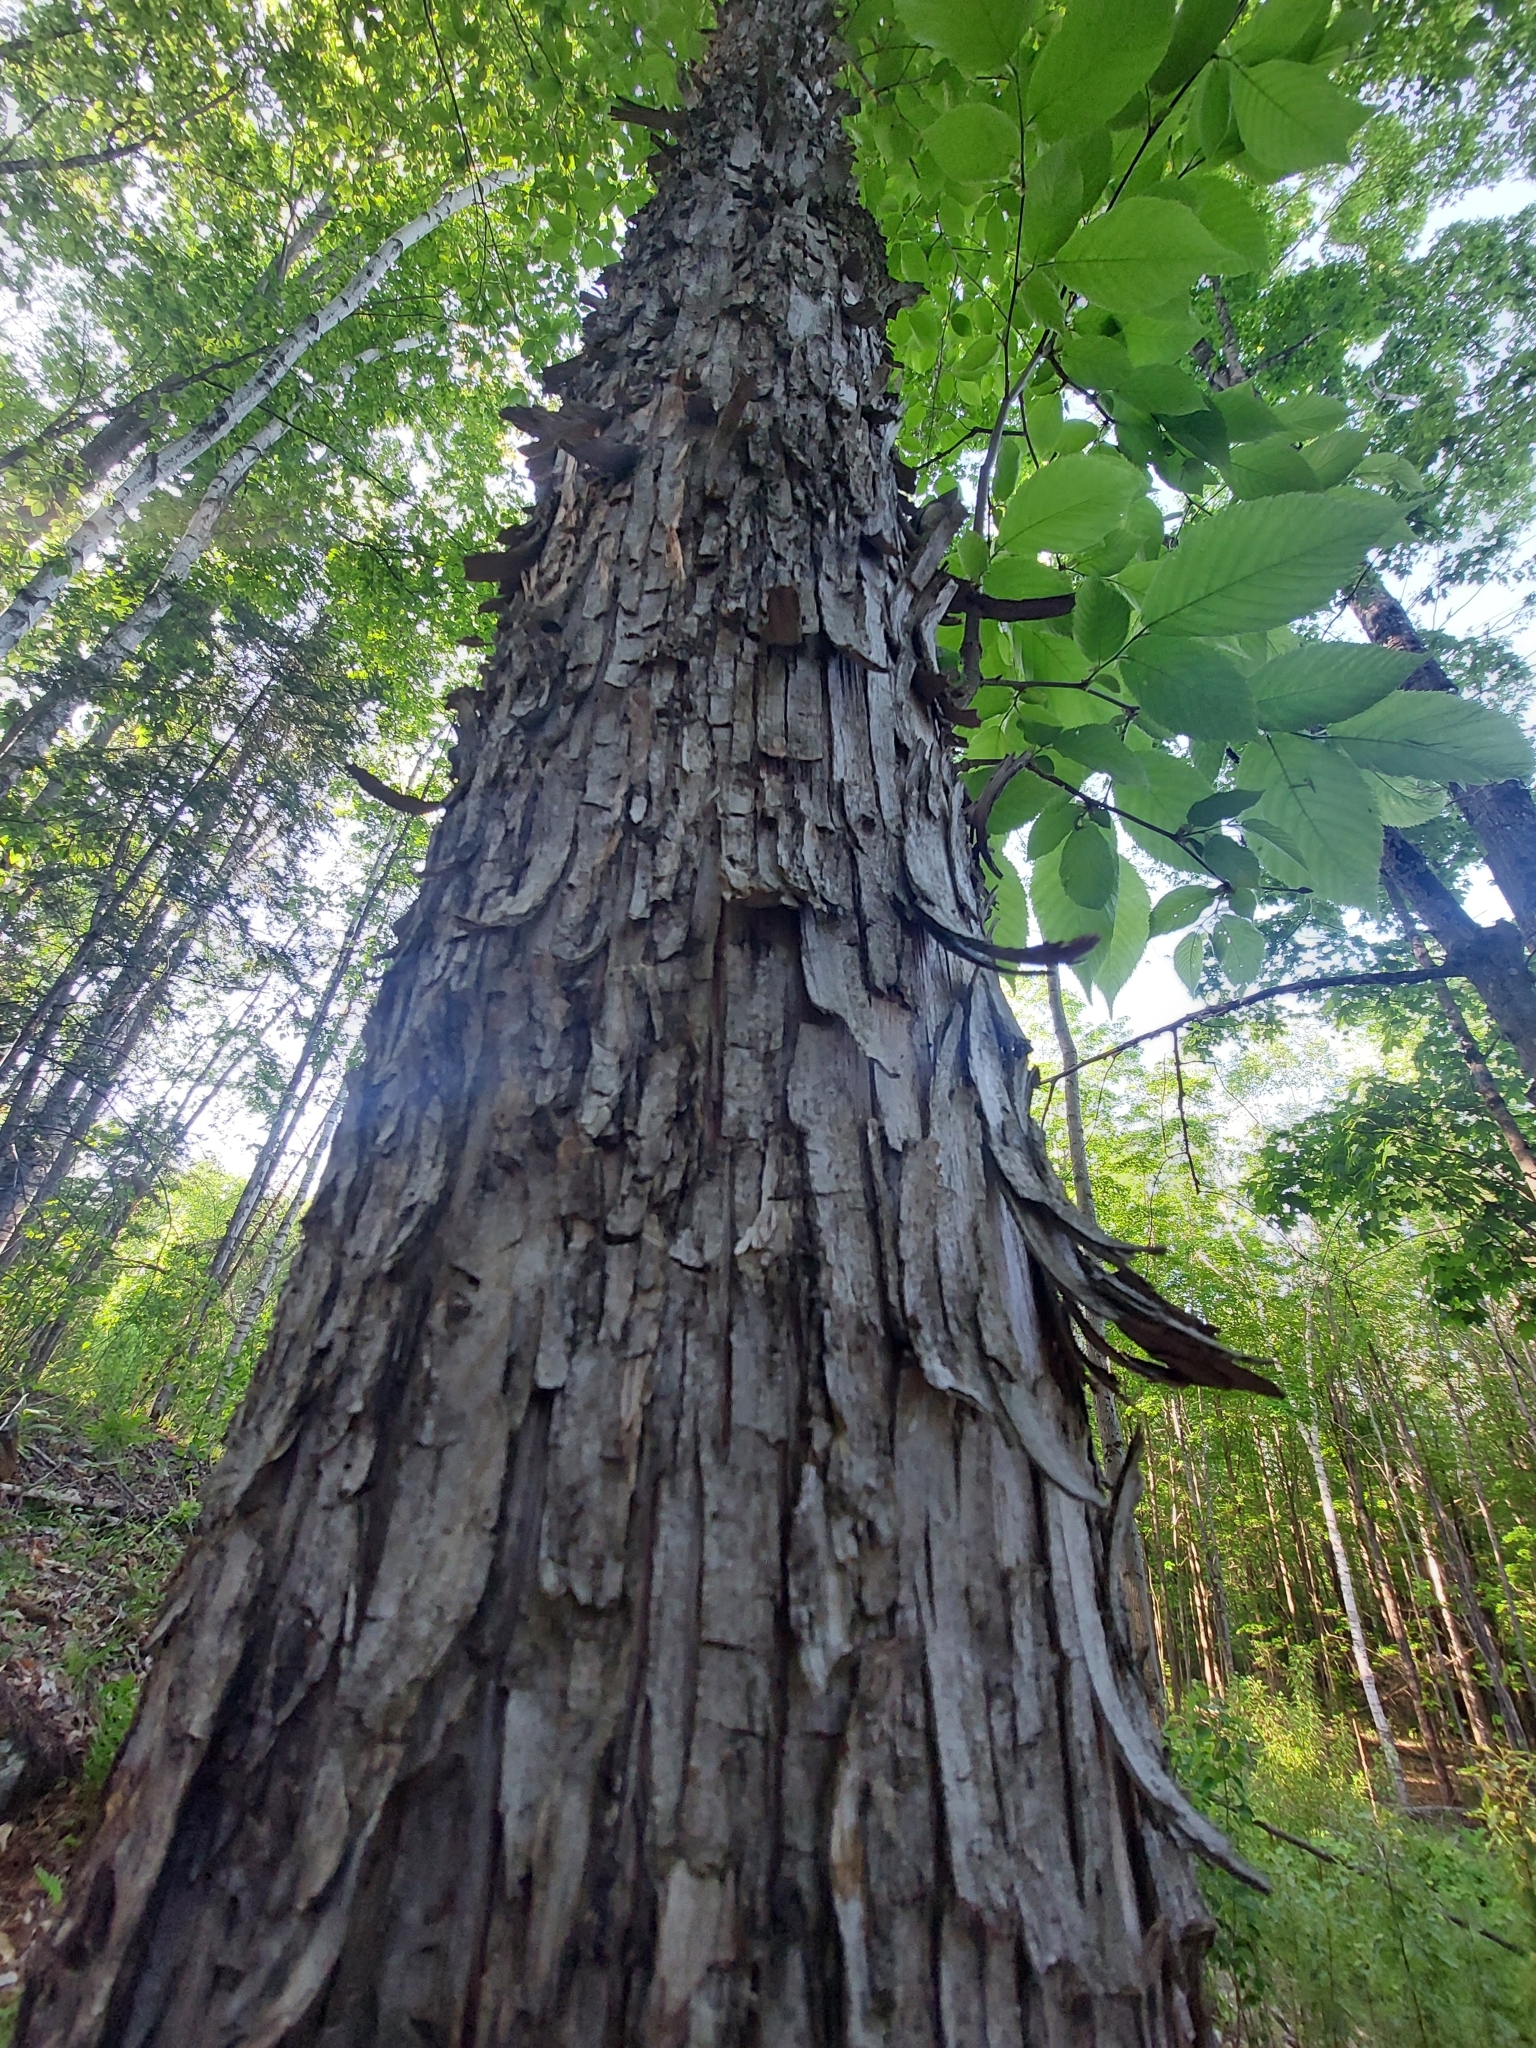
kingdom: Plantae
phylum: Tracheophyta
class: Magnoliopsida
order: Fagales
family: Betulaceae
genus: Ostrya
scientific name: Ostrya virginiana
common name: Ironwood
